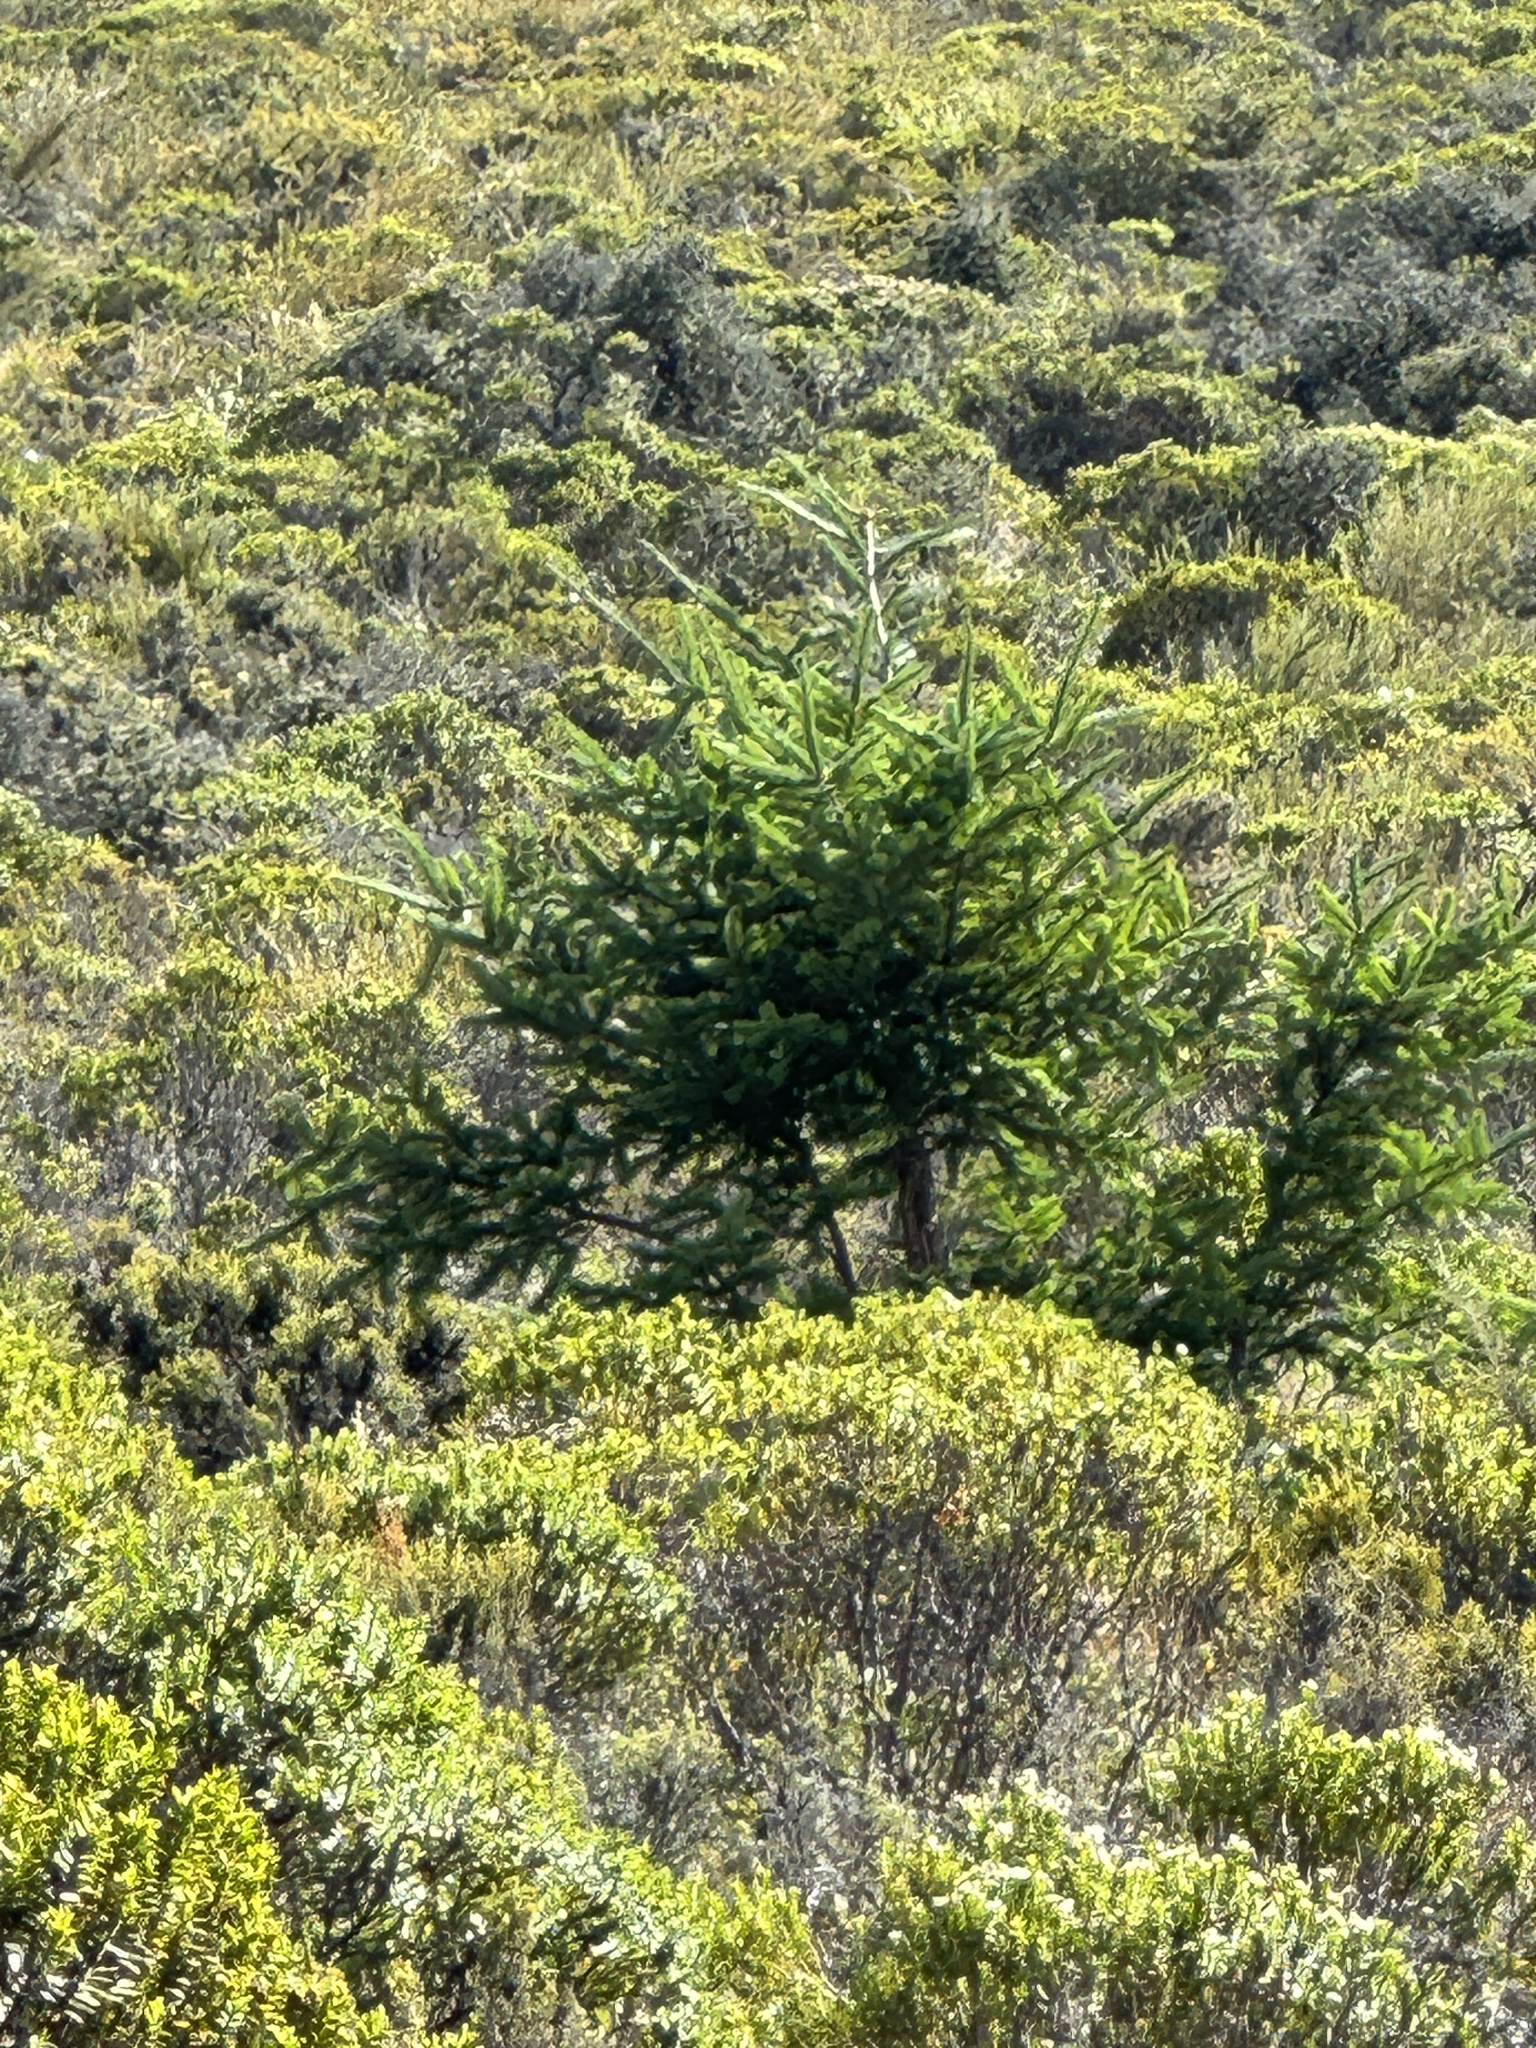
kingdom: Plantae
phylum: Tracheophyta
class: Pinopsida
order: Pinales
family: Pinaceae
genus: Pseudotsuga
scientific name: Pseudotsuga menziesii
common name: Douglas fir
